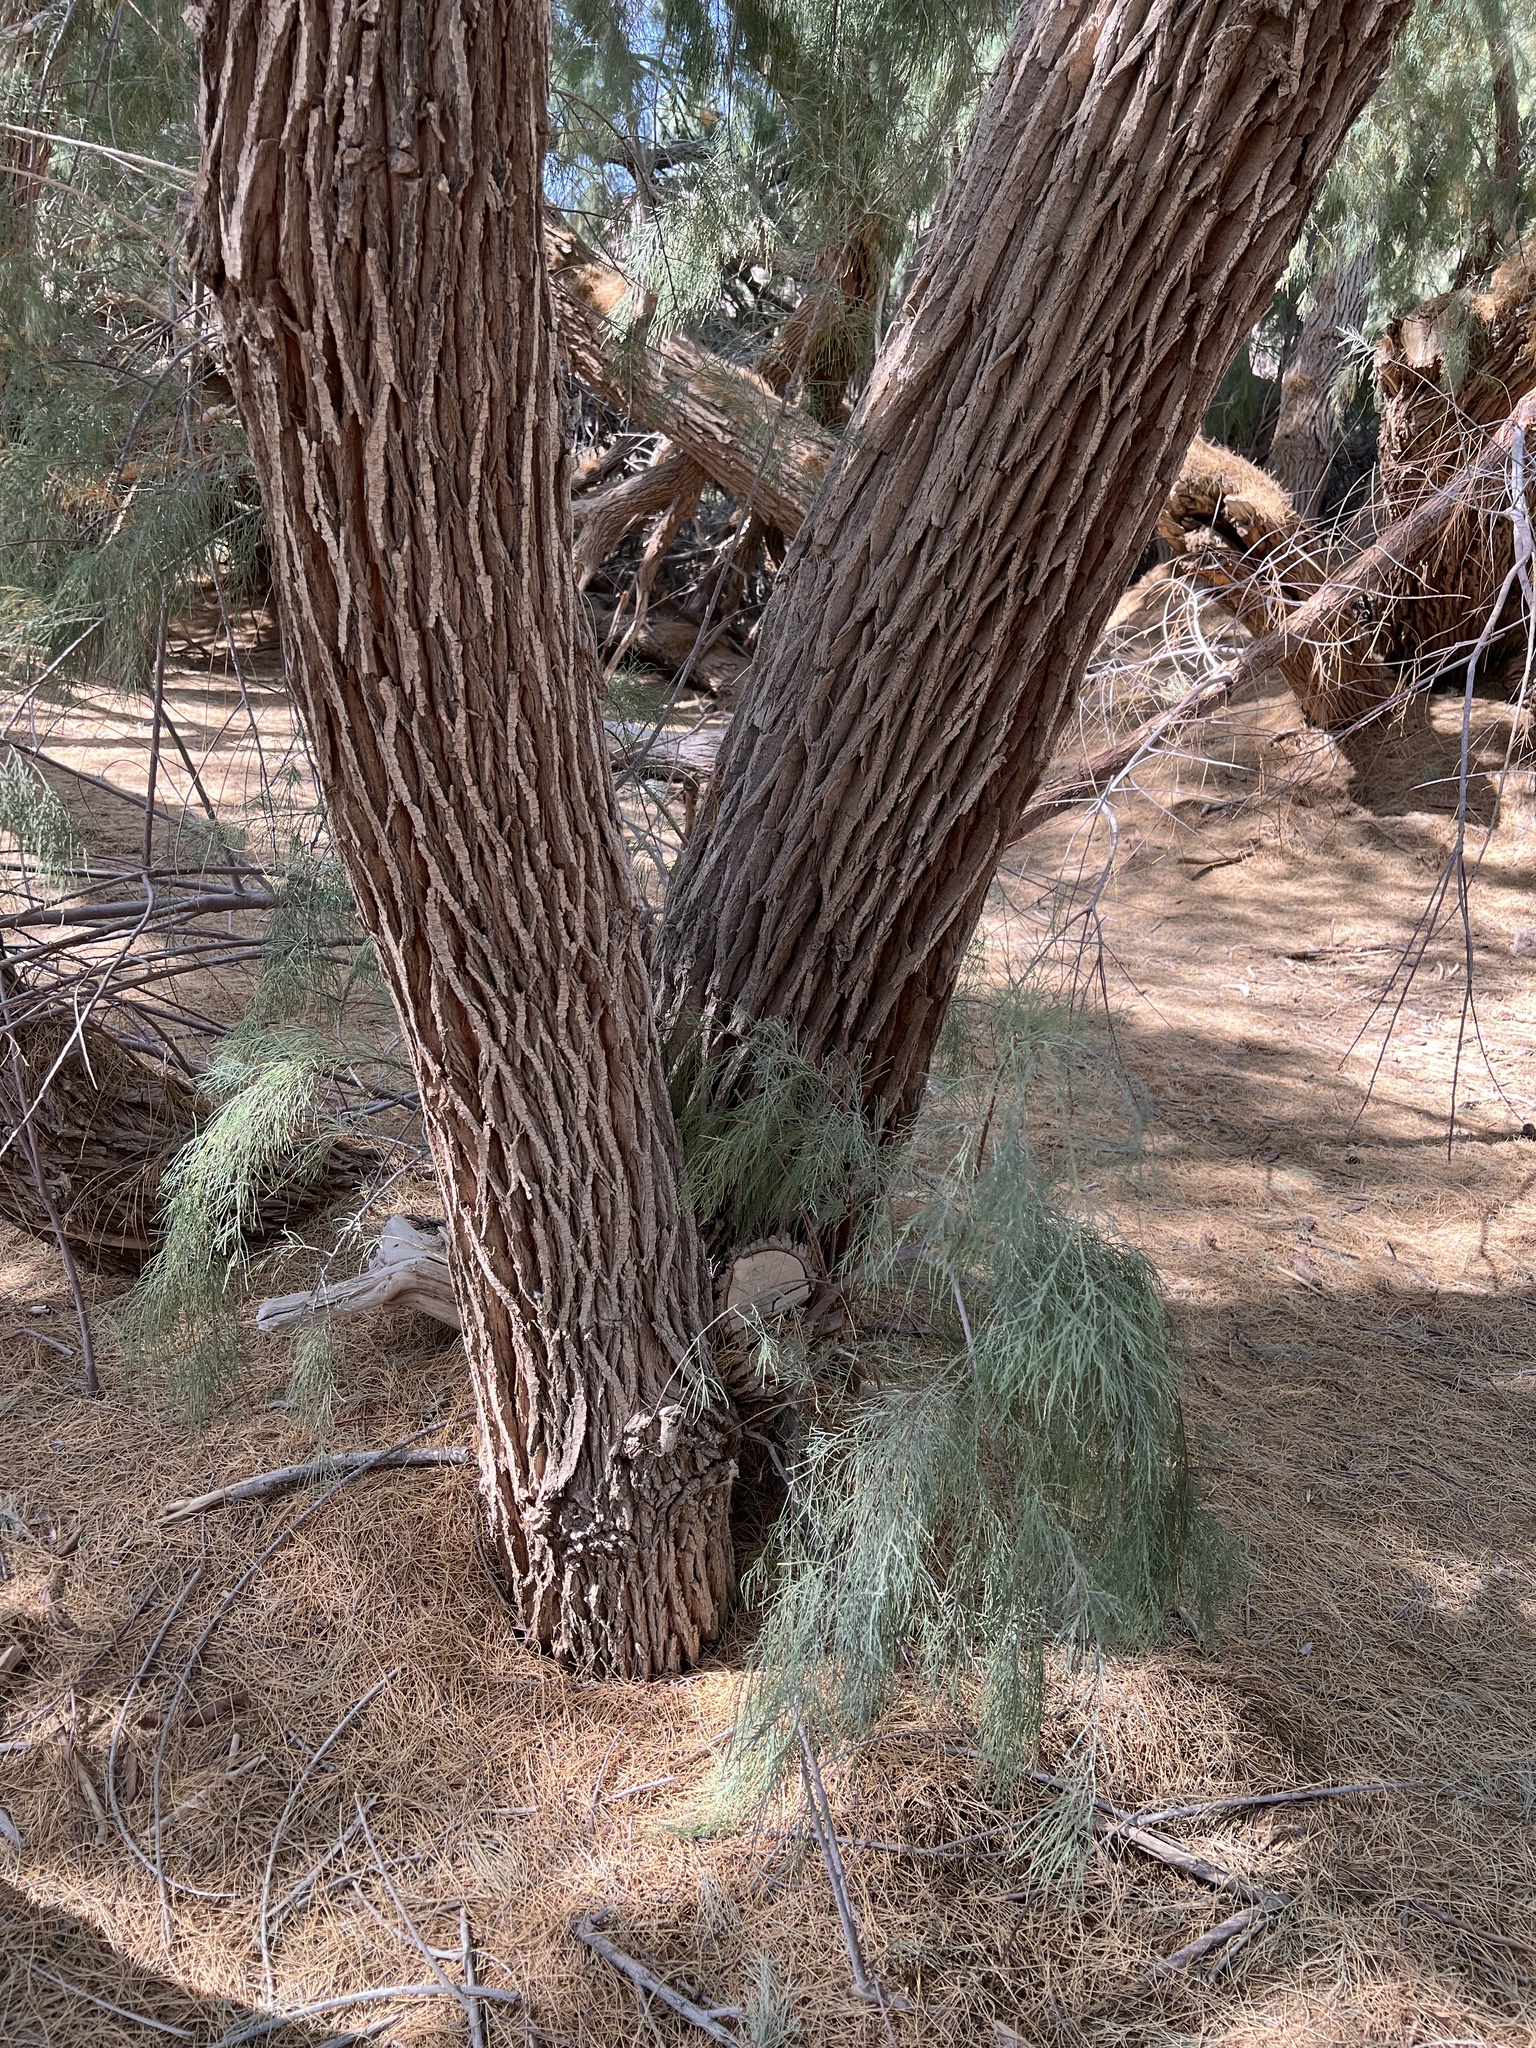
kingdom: Plantae
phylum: Tracheophyta
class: Magnoliopsida
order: Caryophyllales
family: Tamaricaceae
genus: Tamarix
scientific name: Tamarix aphylla
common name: Athel tamarisk
